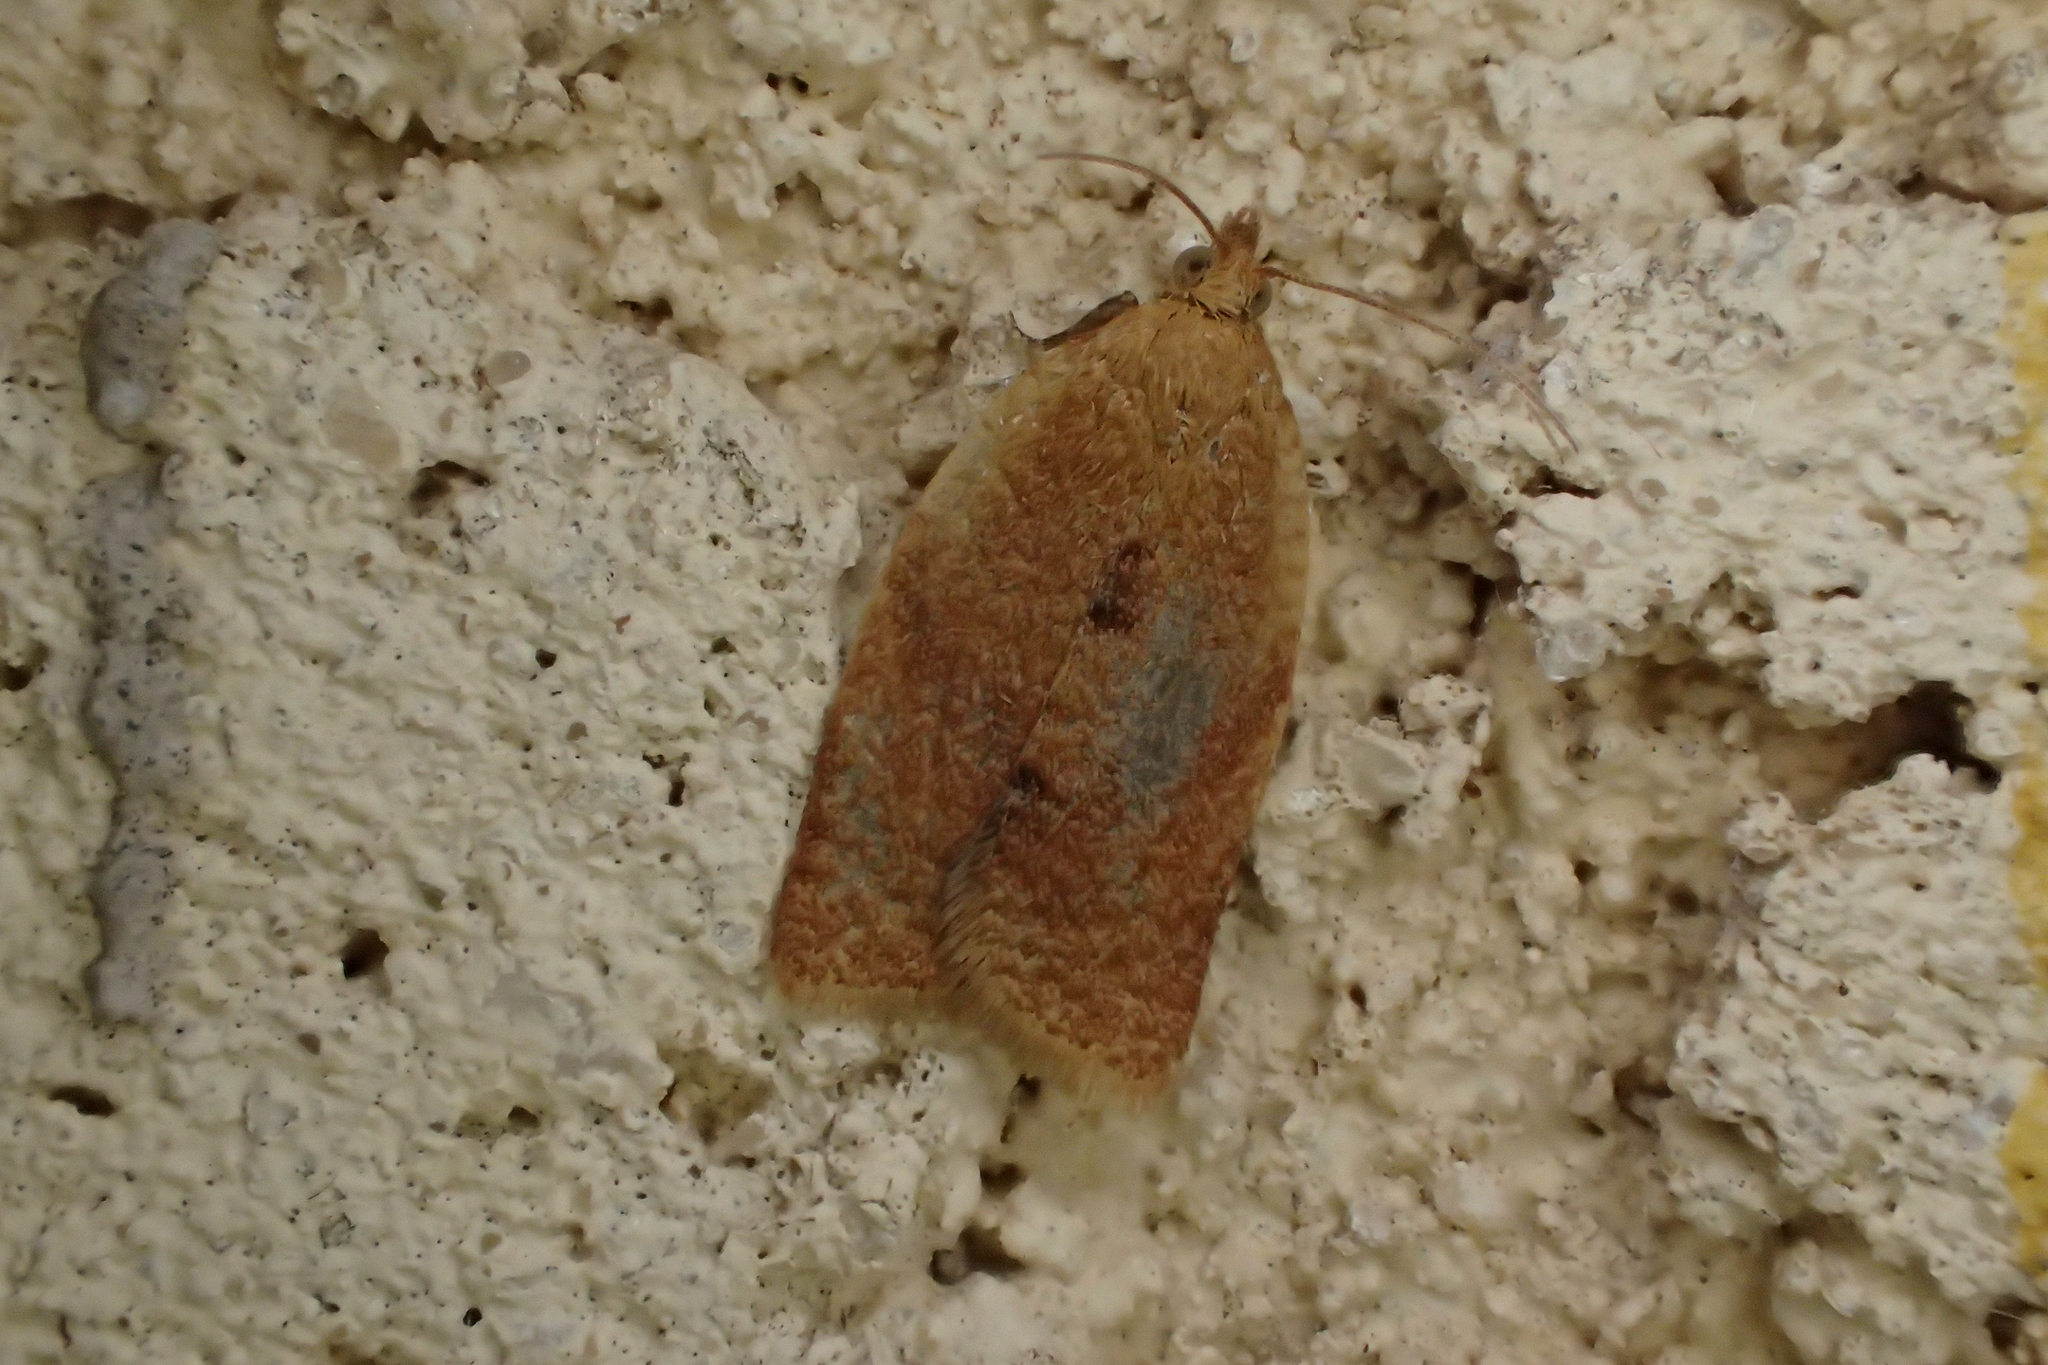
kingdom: Animalia
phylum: Arthropoda
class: Insecta
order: Lepidoptera
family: Tortricidae
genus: Clepsis
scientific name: Clepsis consimilana
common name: Privet tortrix
